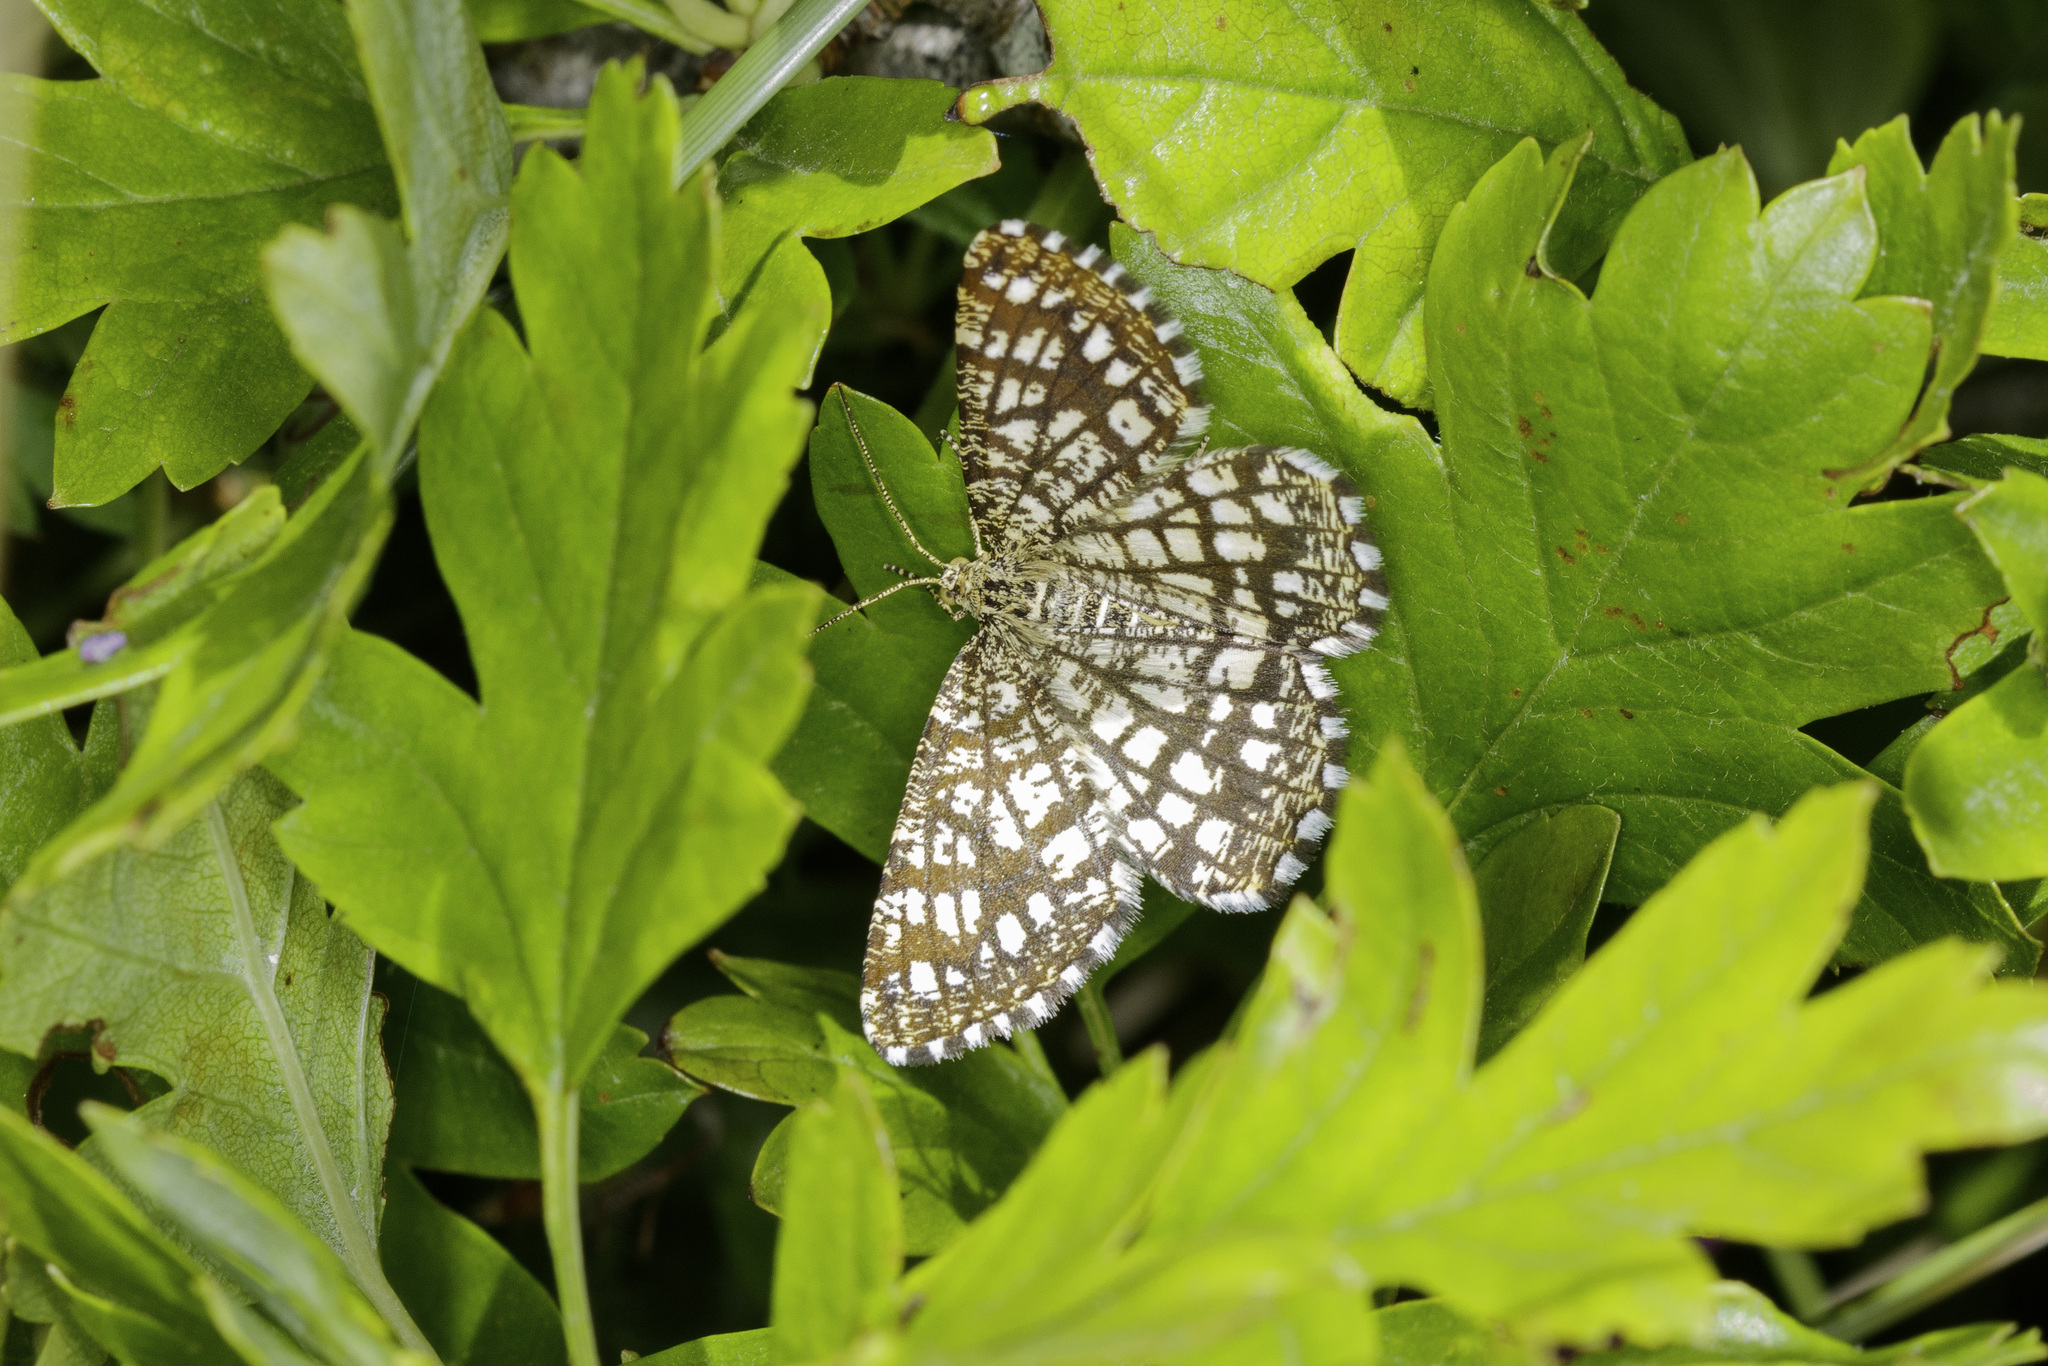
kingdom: Animalia
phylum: Arthropoda
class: Insecta
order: Lepidoptera
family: Geometridae
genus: Chiasmia
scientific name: Chiasmia clathrata
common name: Latticed heath
